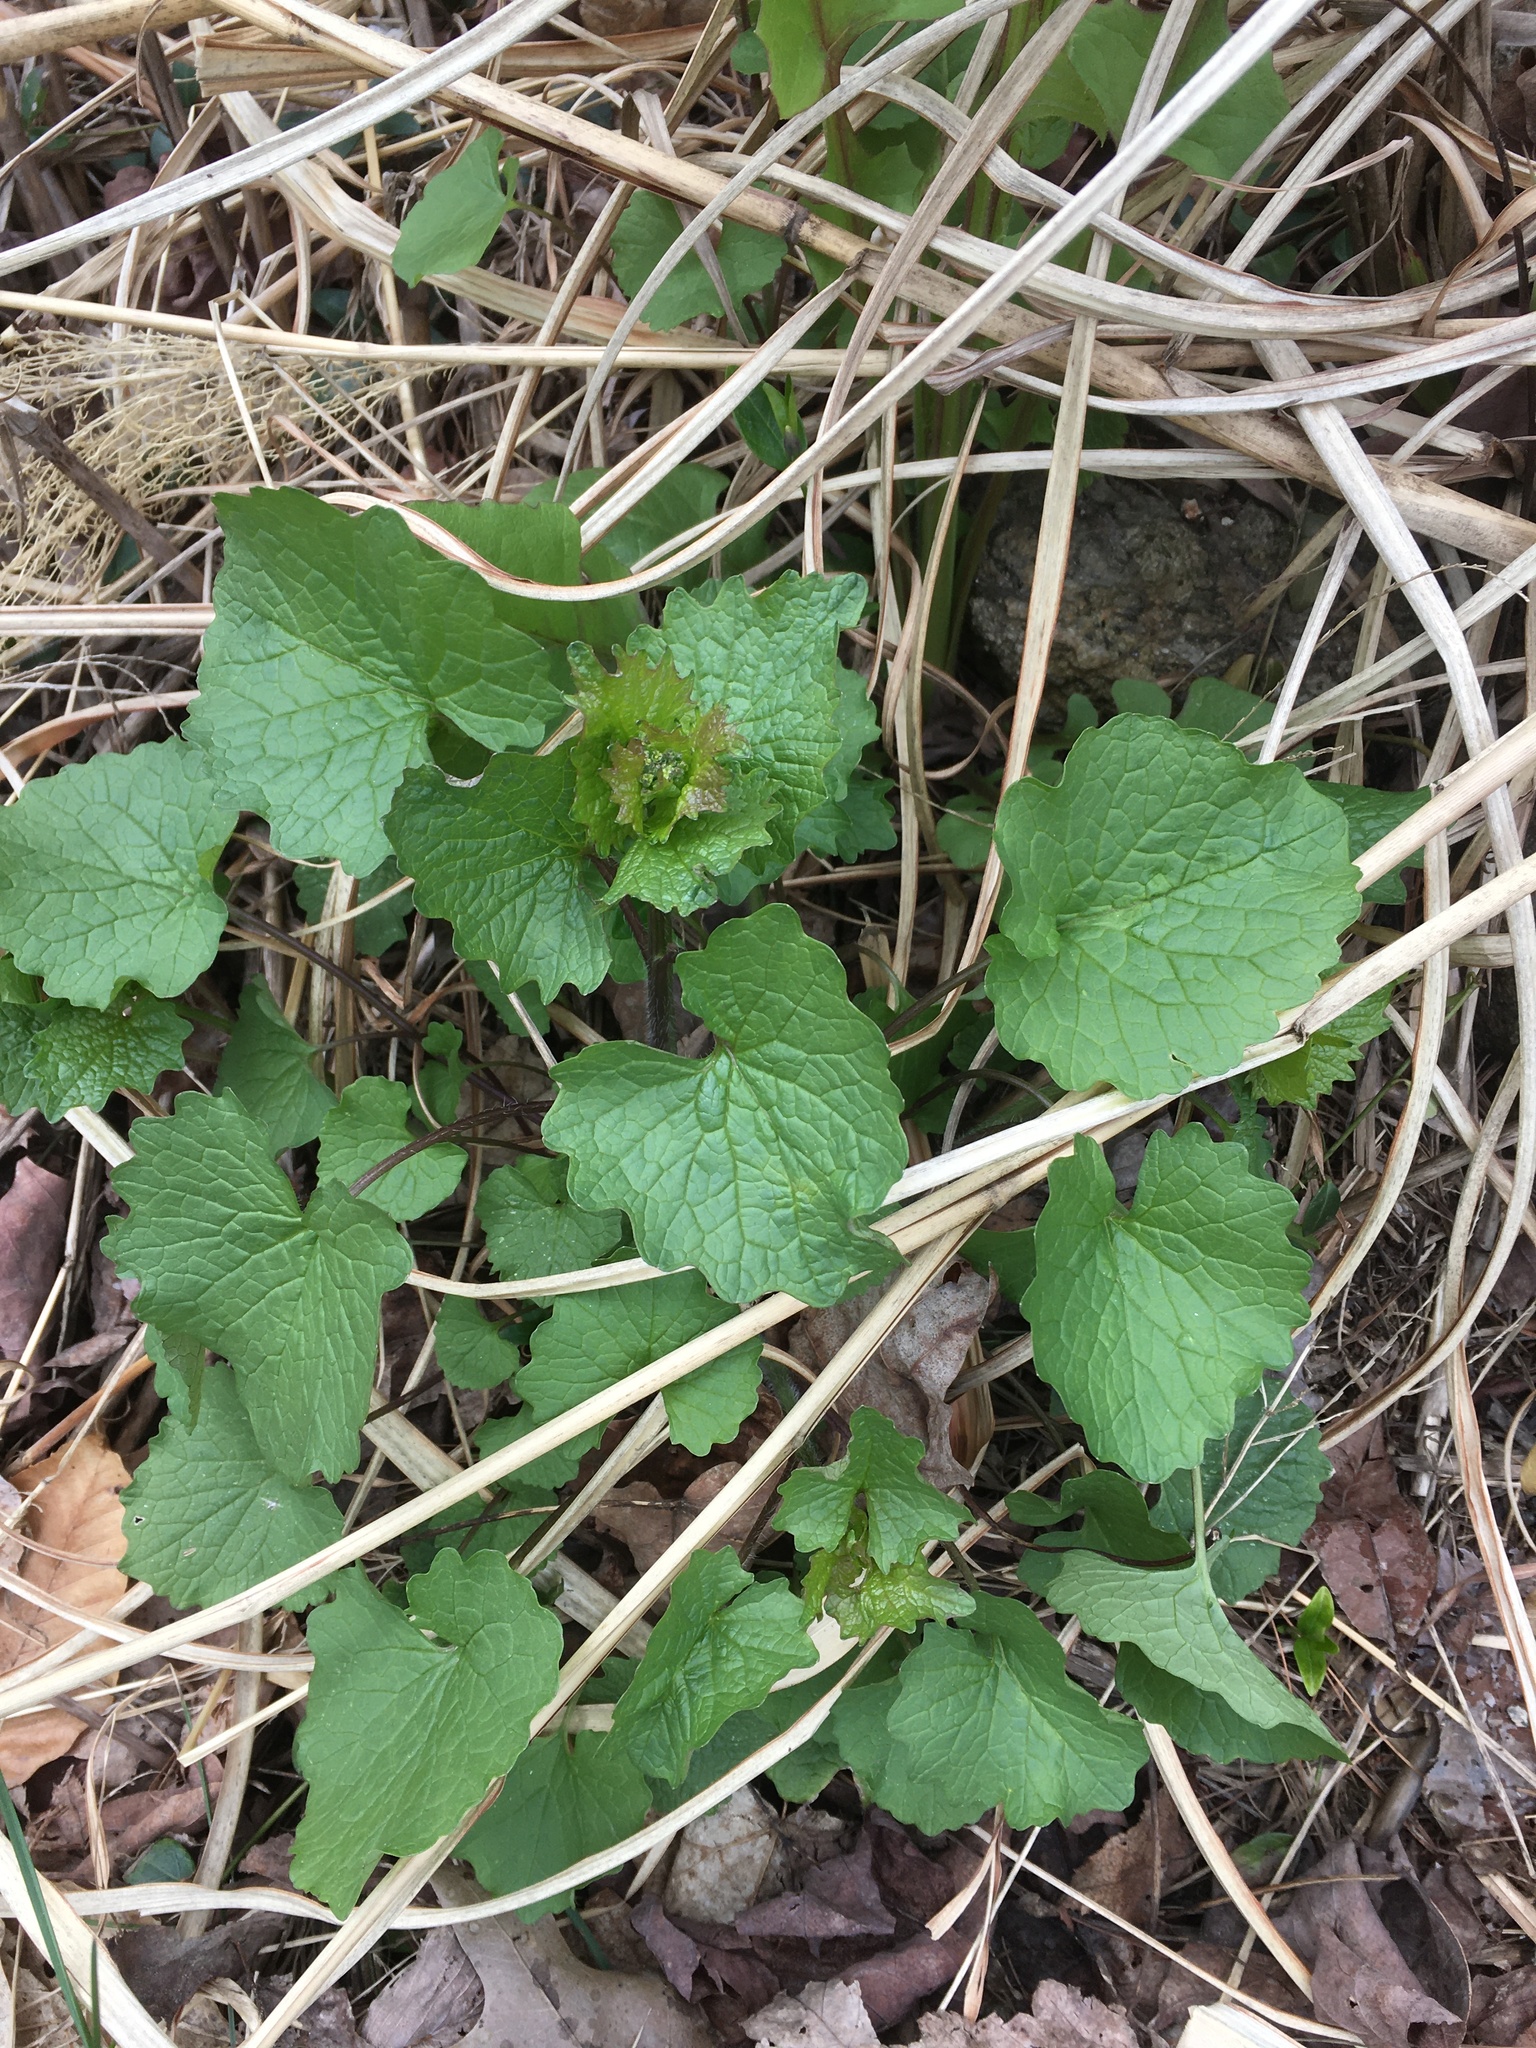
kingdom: Plantae
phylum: Tracheophyta
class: Magnoliopsida
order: Brassicales
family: Brassicaceae
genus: Alliaria
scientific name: Alliaria petiolata
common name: Garlic mustard
